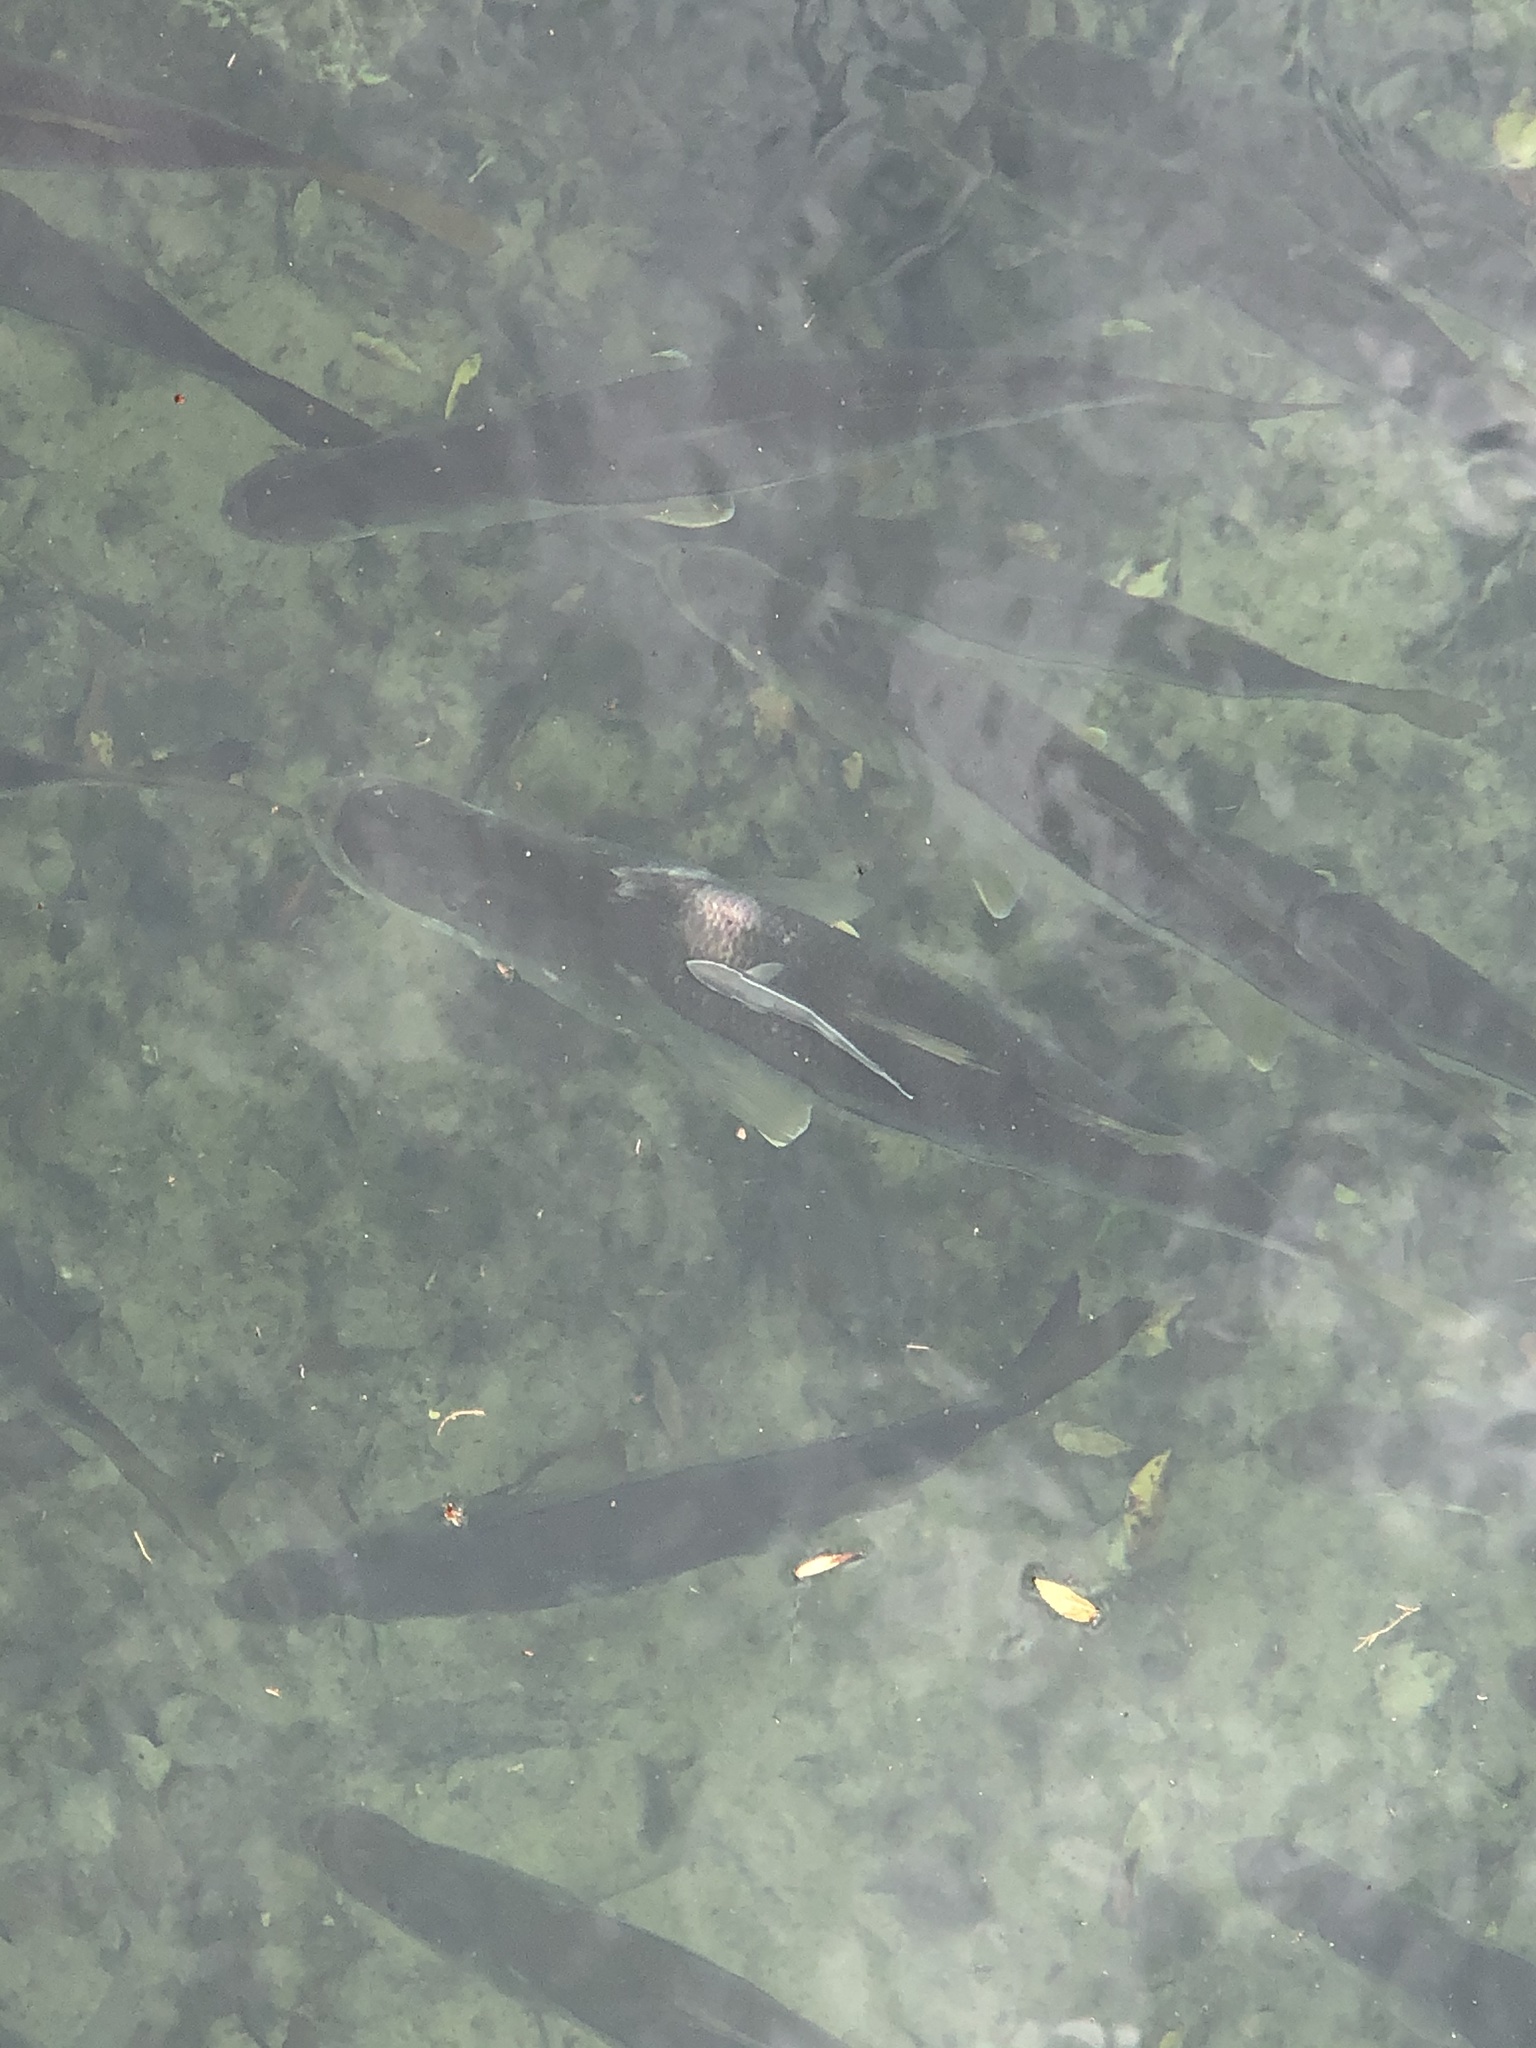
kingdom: Animalia
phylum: Chordata
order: Perciformes
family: Centropomidae
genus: Centropomus
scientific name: Centropomus undecimalis
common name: Snook
